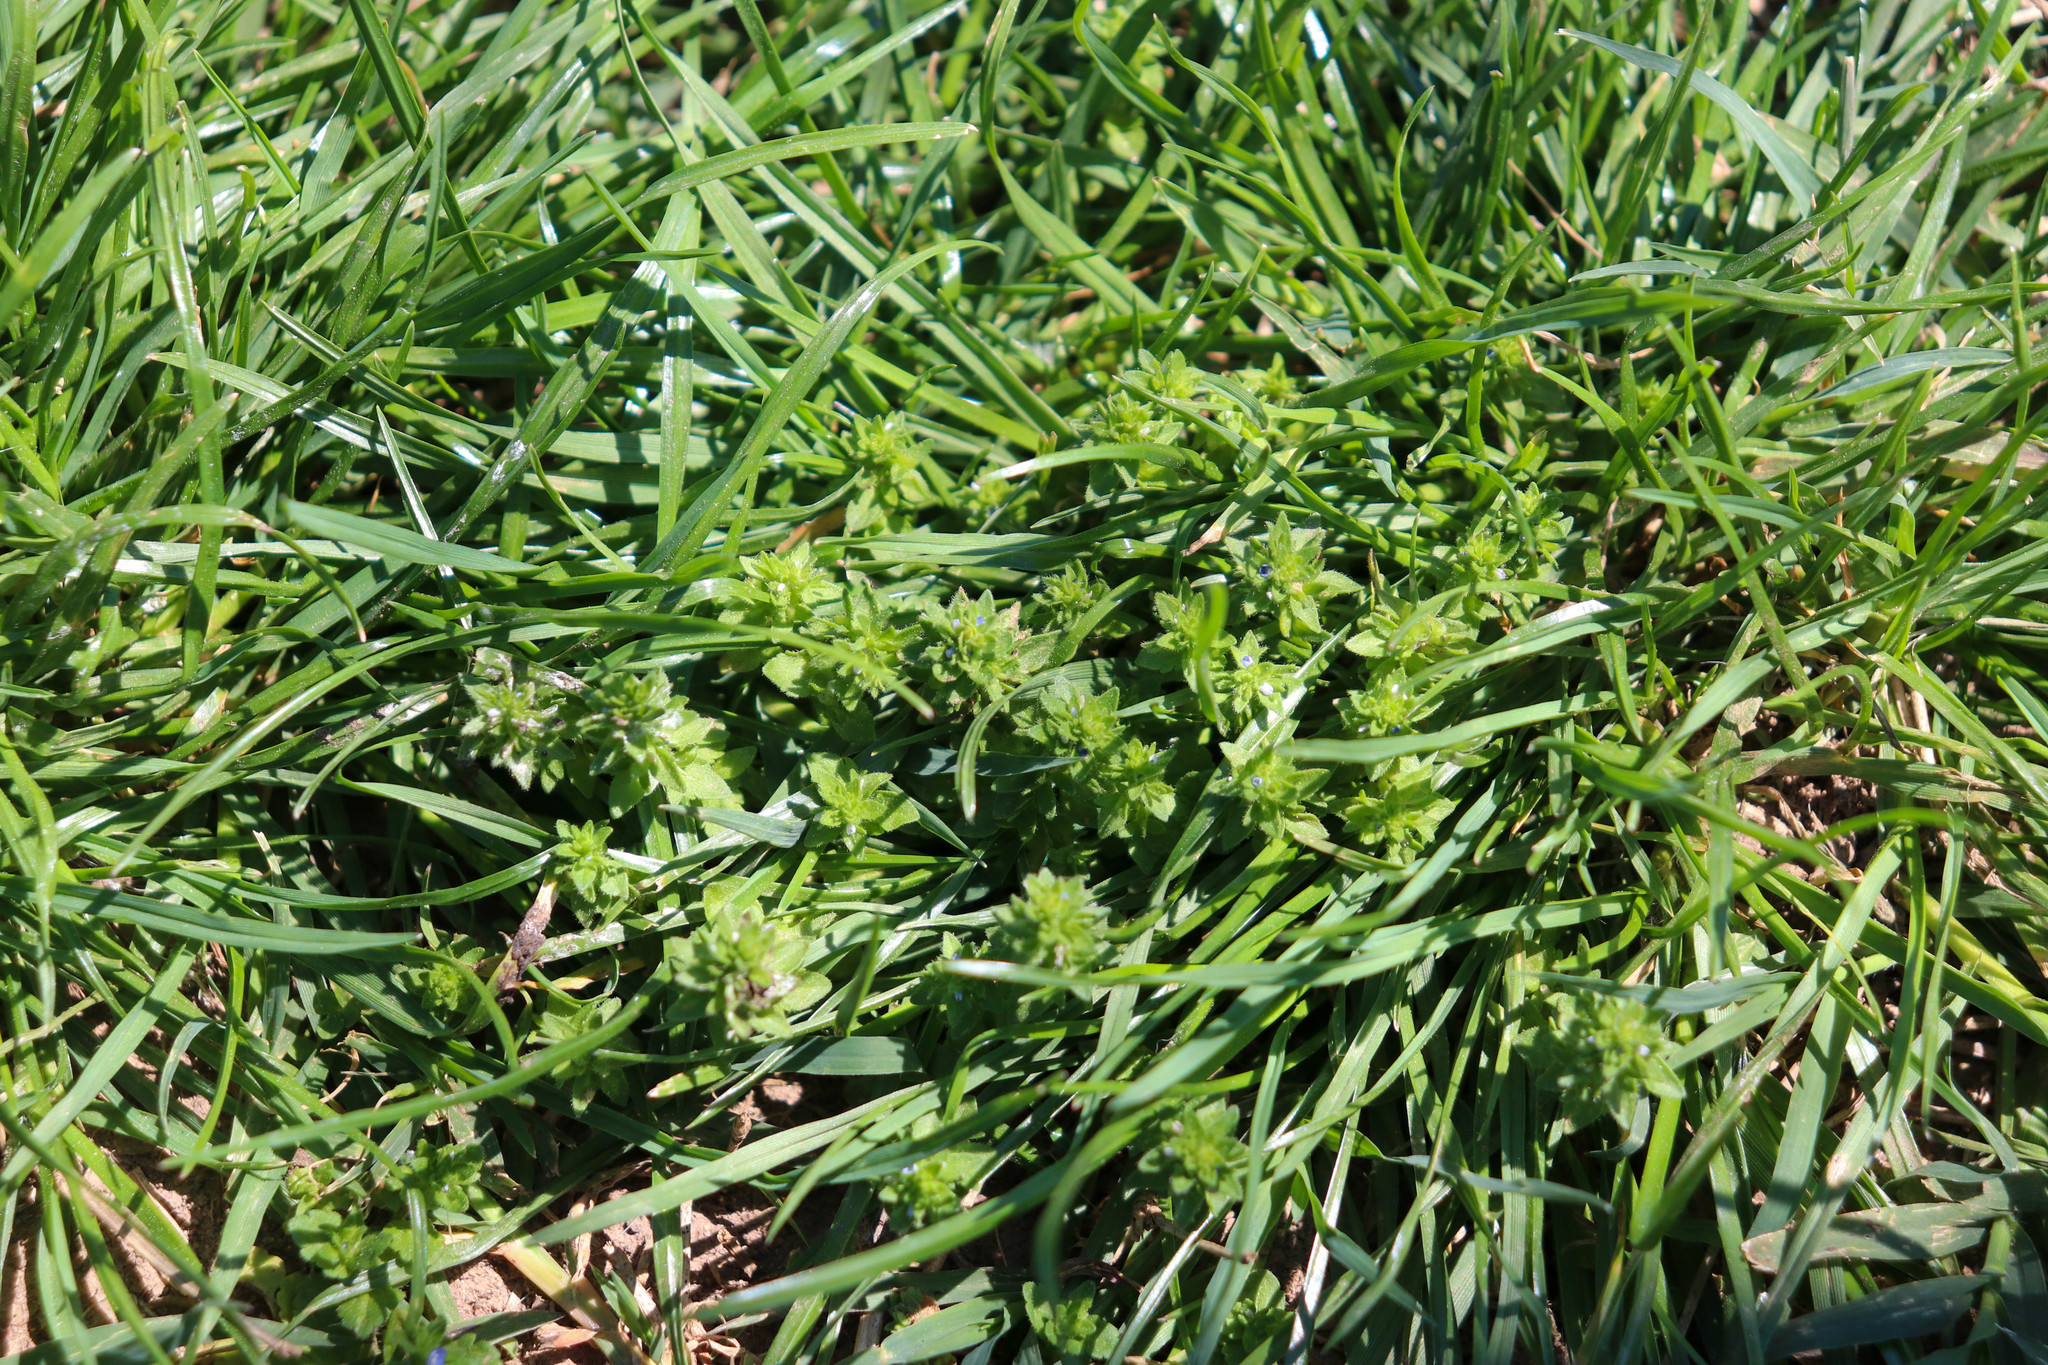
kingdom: Plantae
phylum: Tracheophyta
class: Magnoliopsida
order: Lamiales
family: Plantaginaceae
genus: Veronica
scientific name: Veronica arvensis
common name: Corn speedwell
